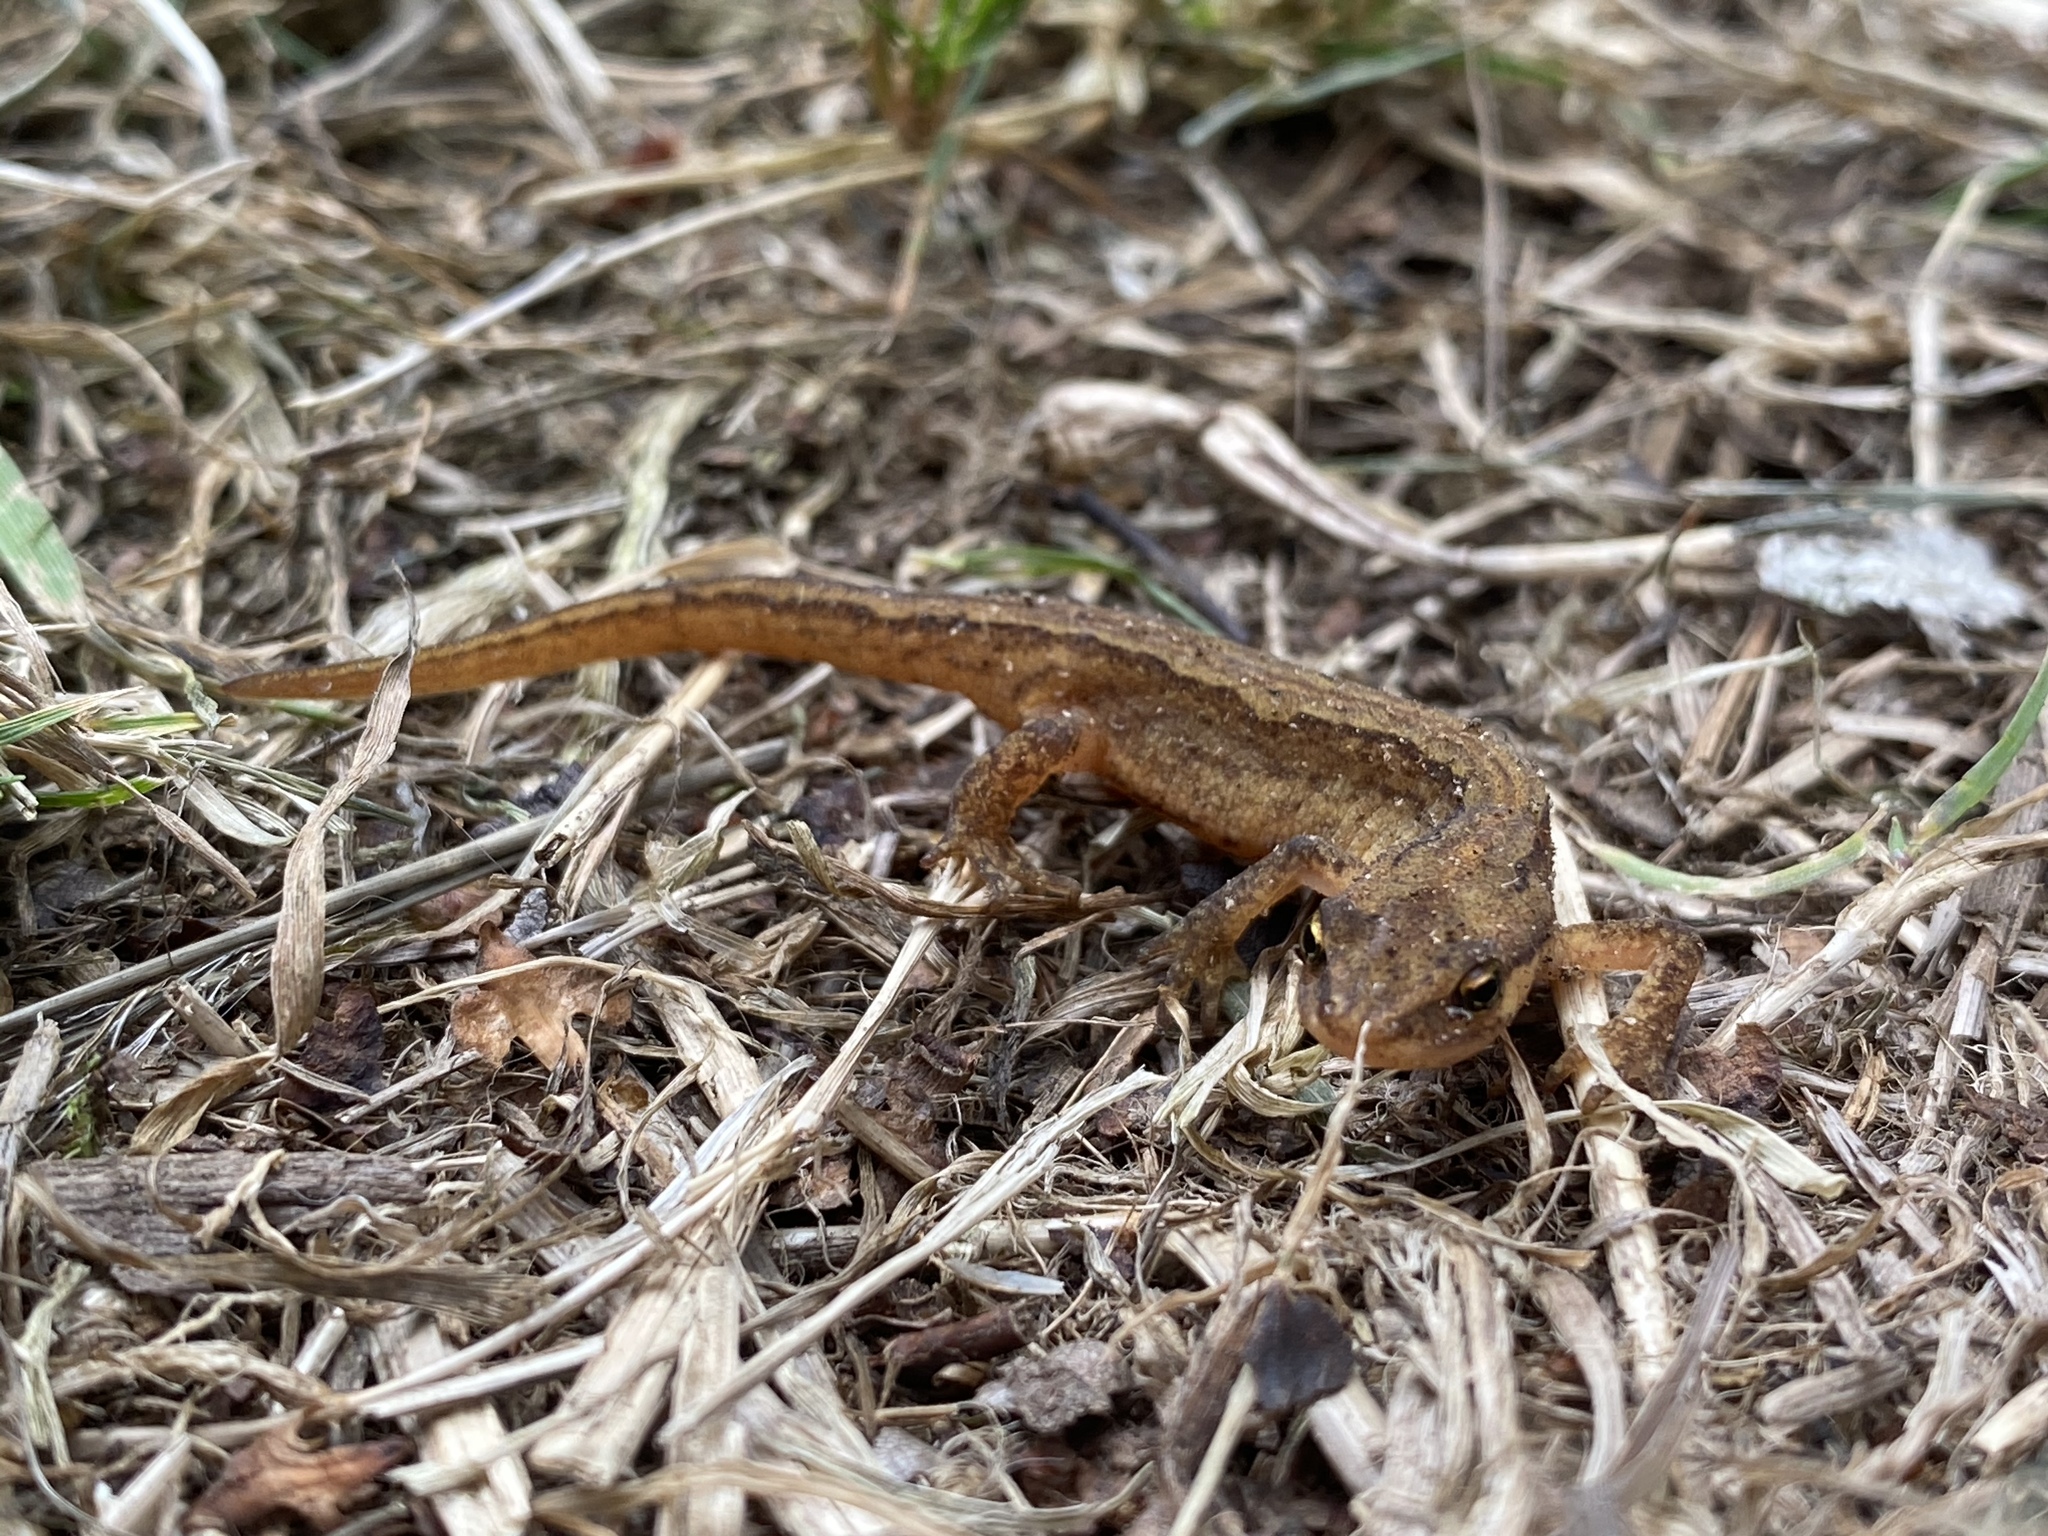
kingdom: Animalia
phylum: Chordata
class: Amphibia
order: Caudata
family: Salamandridae
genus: Lissotriton
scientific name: Lissotriton vulgaris
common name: Smooth newt
